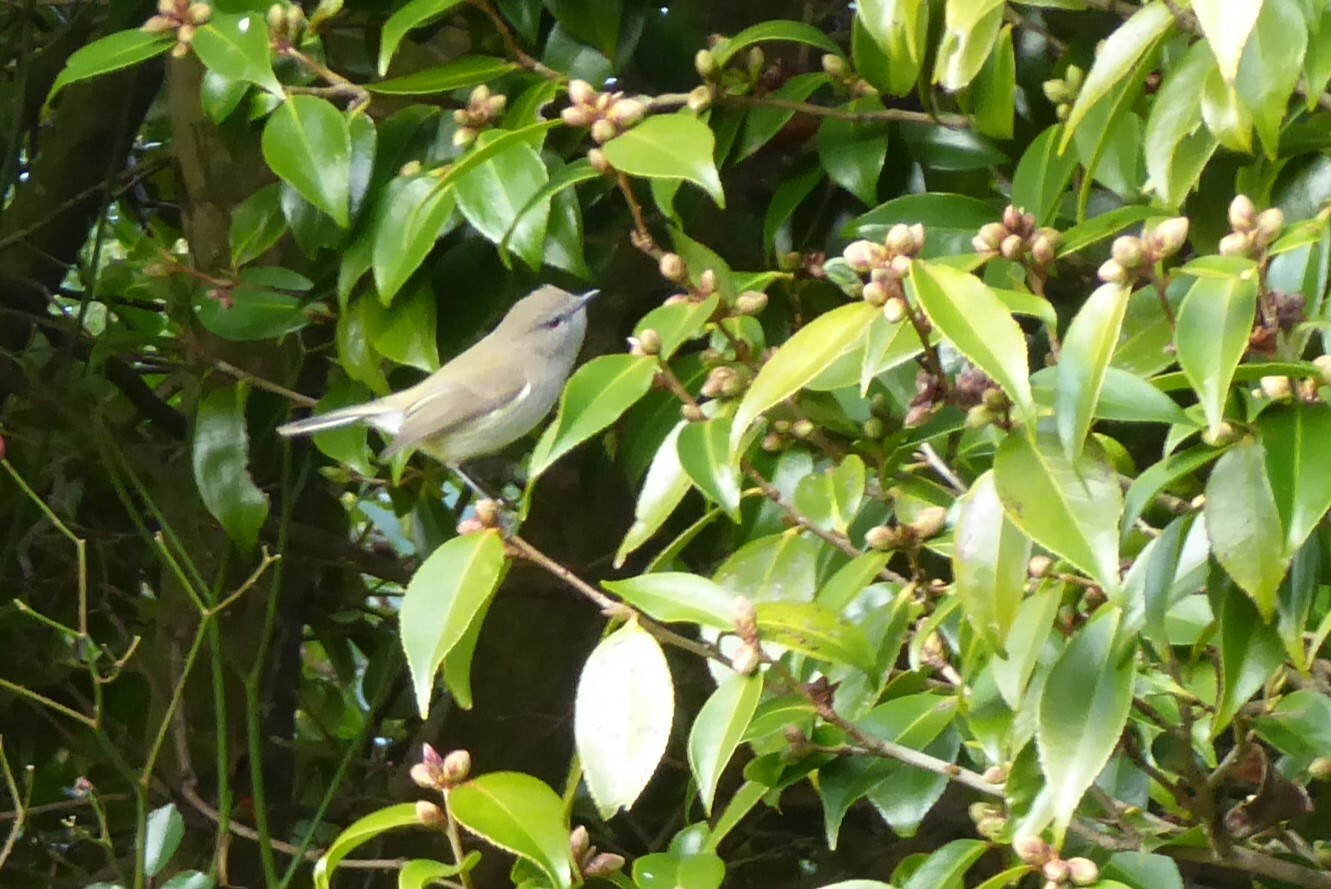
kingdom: Animalia
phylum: Chordata
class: Aves
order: Passeriformes
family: Acanthizidae
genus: Gerygone
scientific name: Gerygone igata
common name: Grey gerygone
